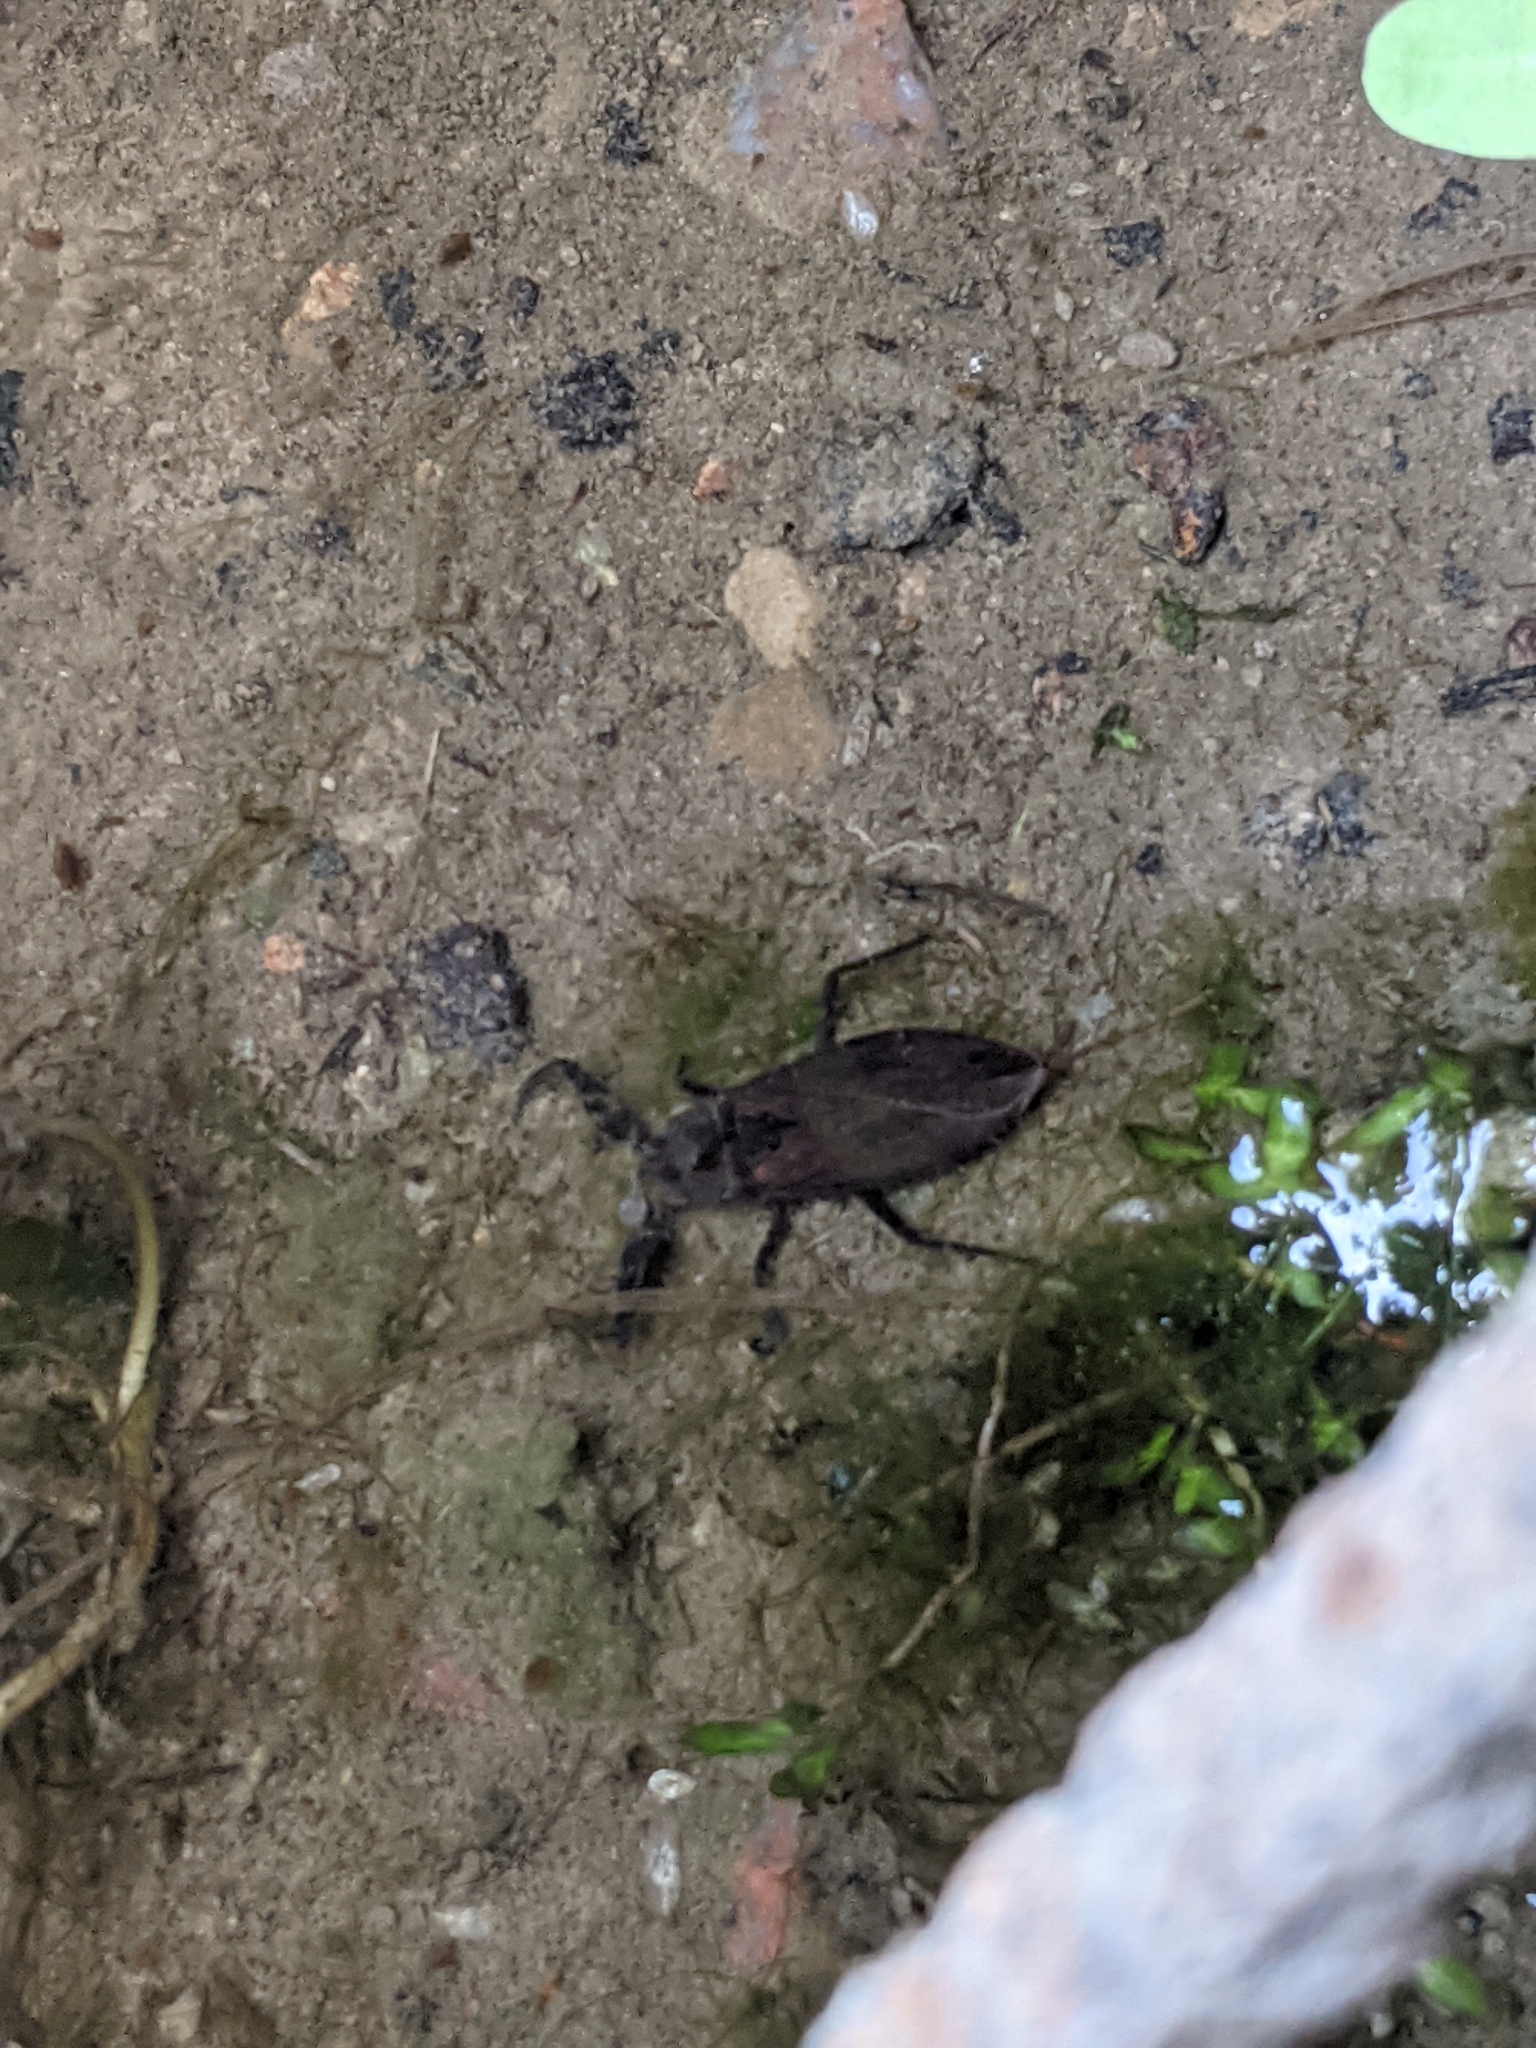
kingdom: Animalia
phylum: Arthropoda
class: Insecta
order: Hemiptera
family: Nepidae
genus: Nepa
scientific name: Nepa cinerea
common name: Water scorpion
